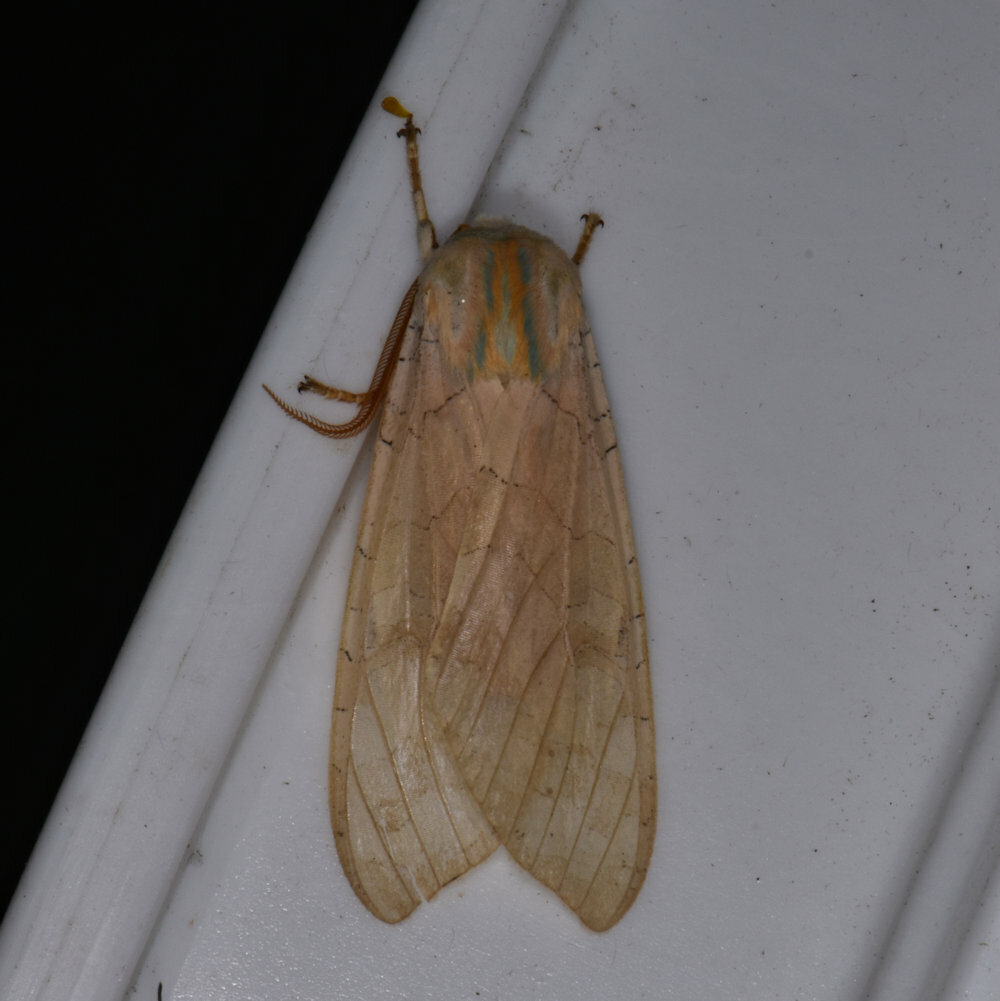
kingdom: Animalia
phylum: Arthropoda
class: Insecta
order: Lepidoptera
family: Erebidae
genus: Halysidota
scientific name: Halysidota
